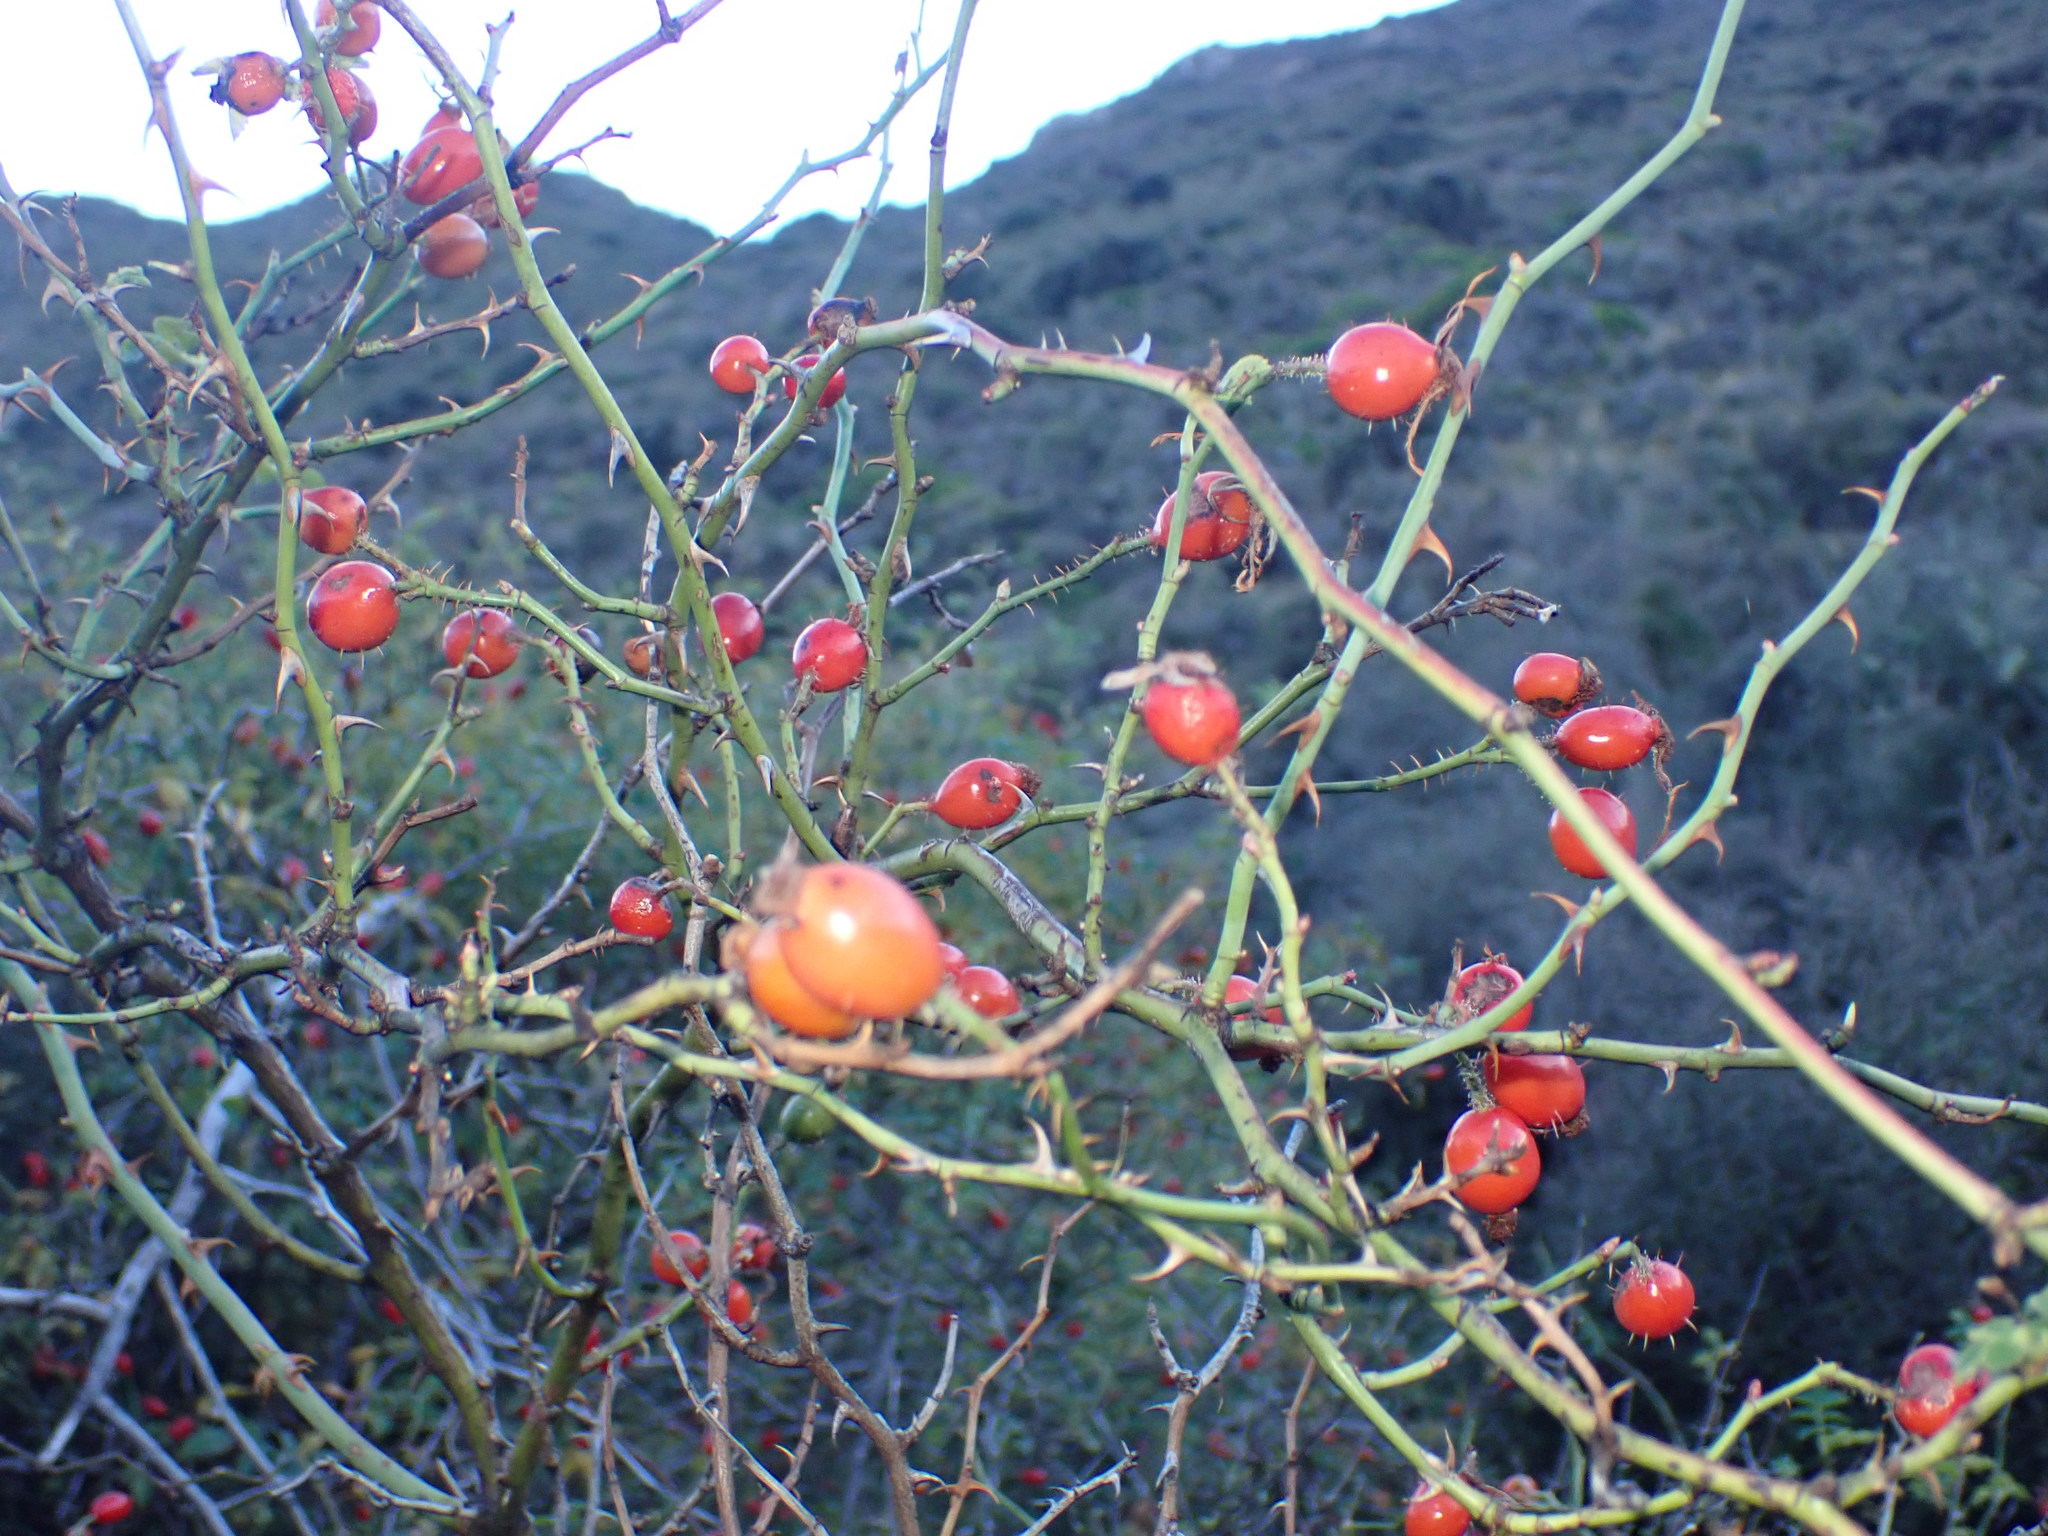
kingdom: Plantae
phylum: Tracheophyta
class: Magnoliopsida
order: Rosales
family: Rosaceae
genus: Rosa
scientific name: Rosa rubiginosa
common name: Sweet-briar
